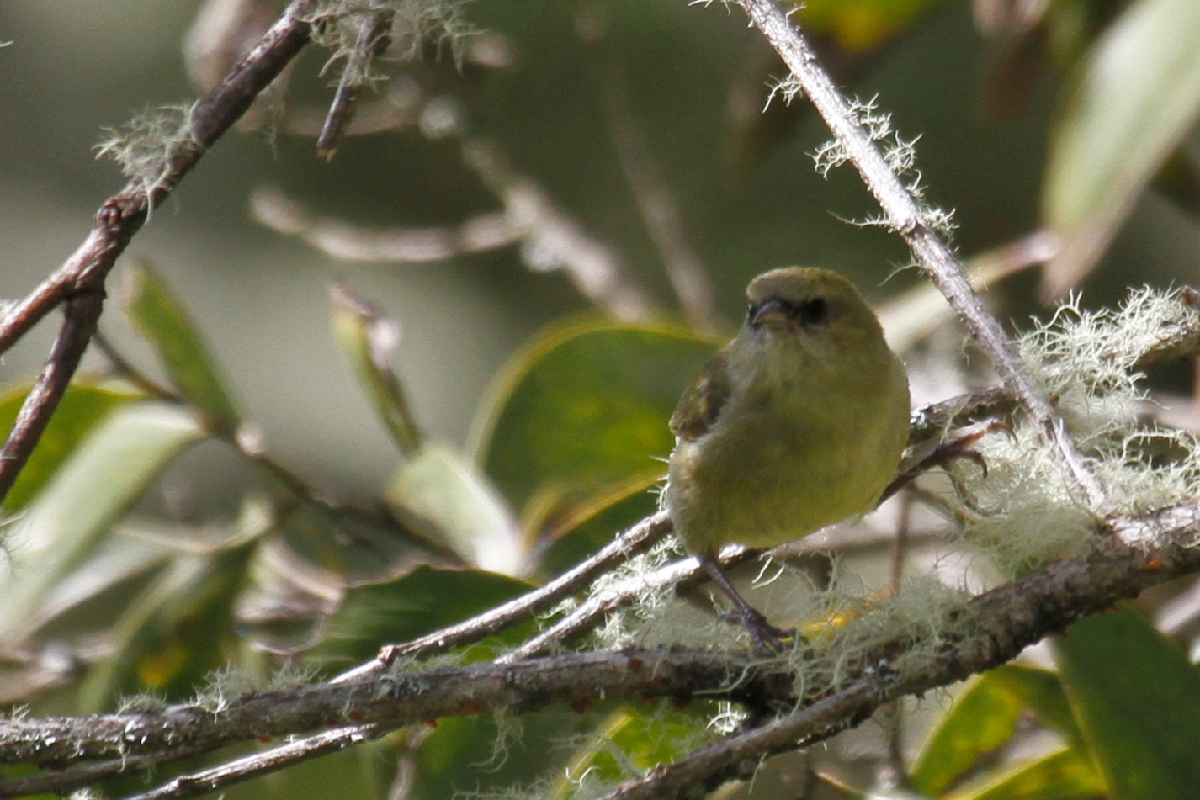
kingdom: Animalia
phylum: Chordata
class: Aves
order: Passeriformes
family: Fringillidae
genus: Loxops
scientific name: Loxops mana
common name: Hawaii creeper
